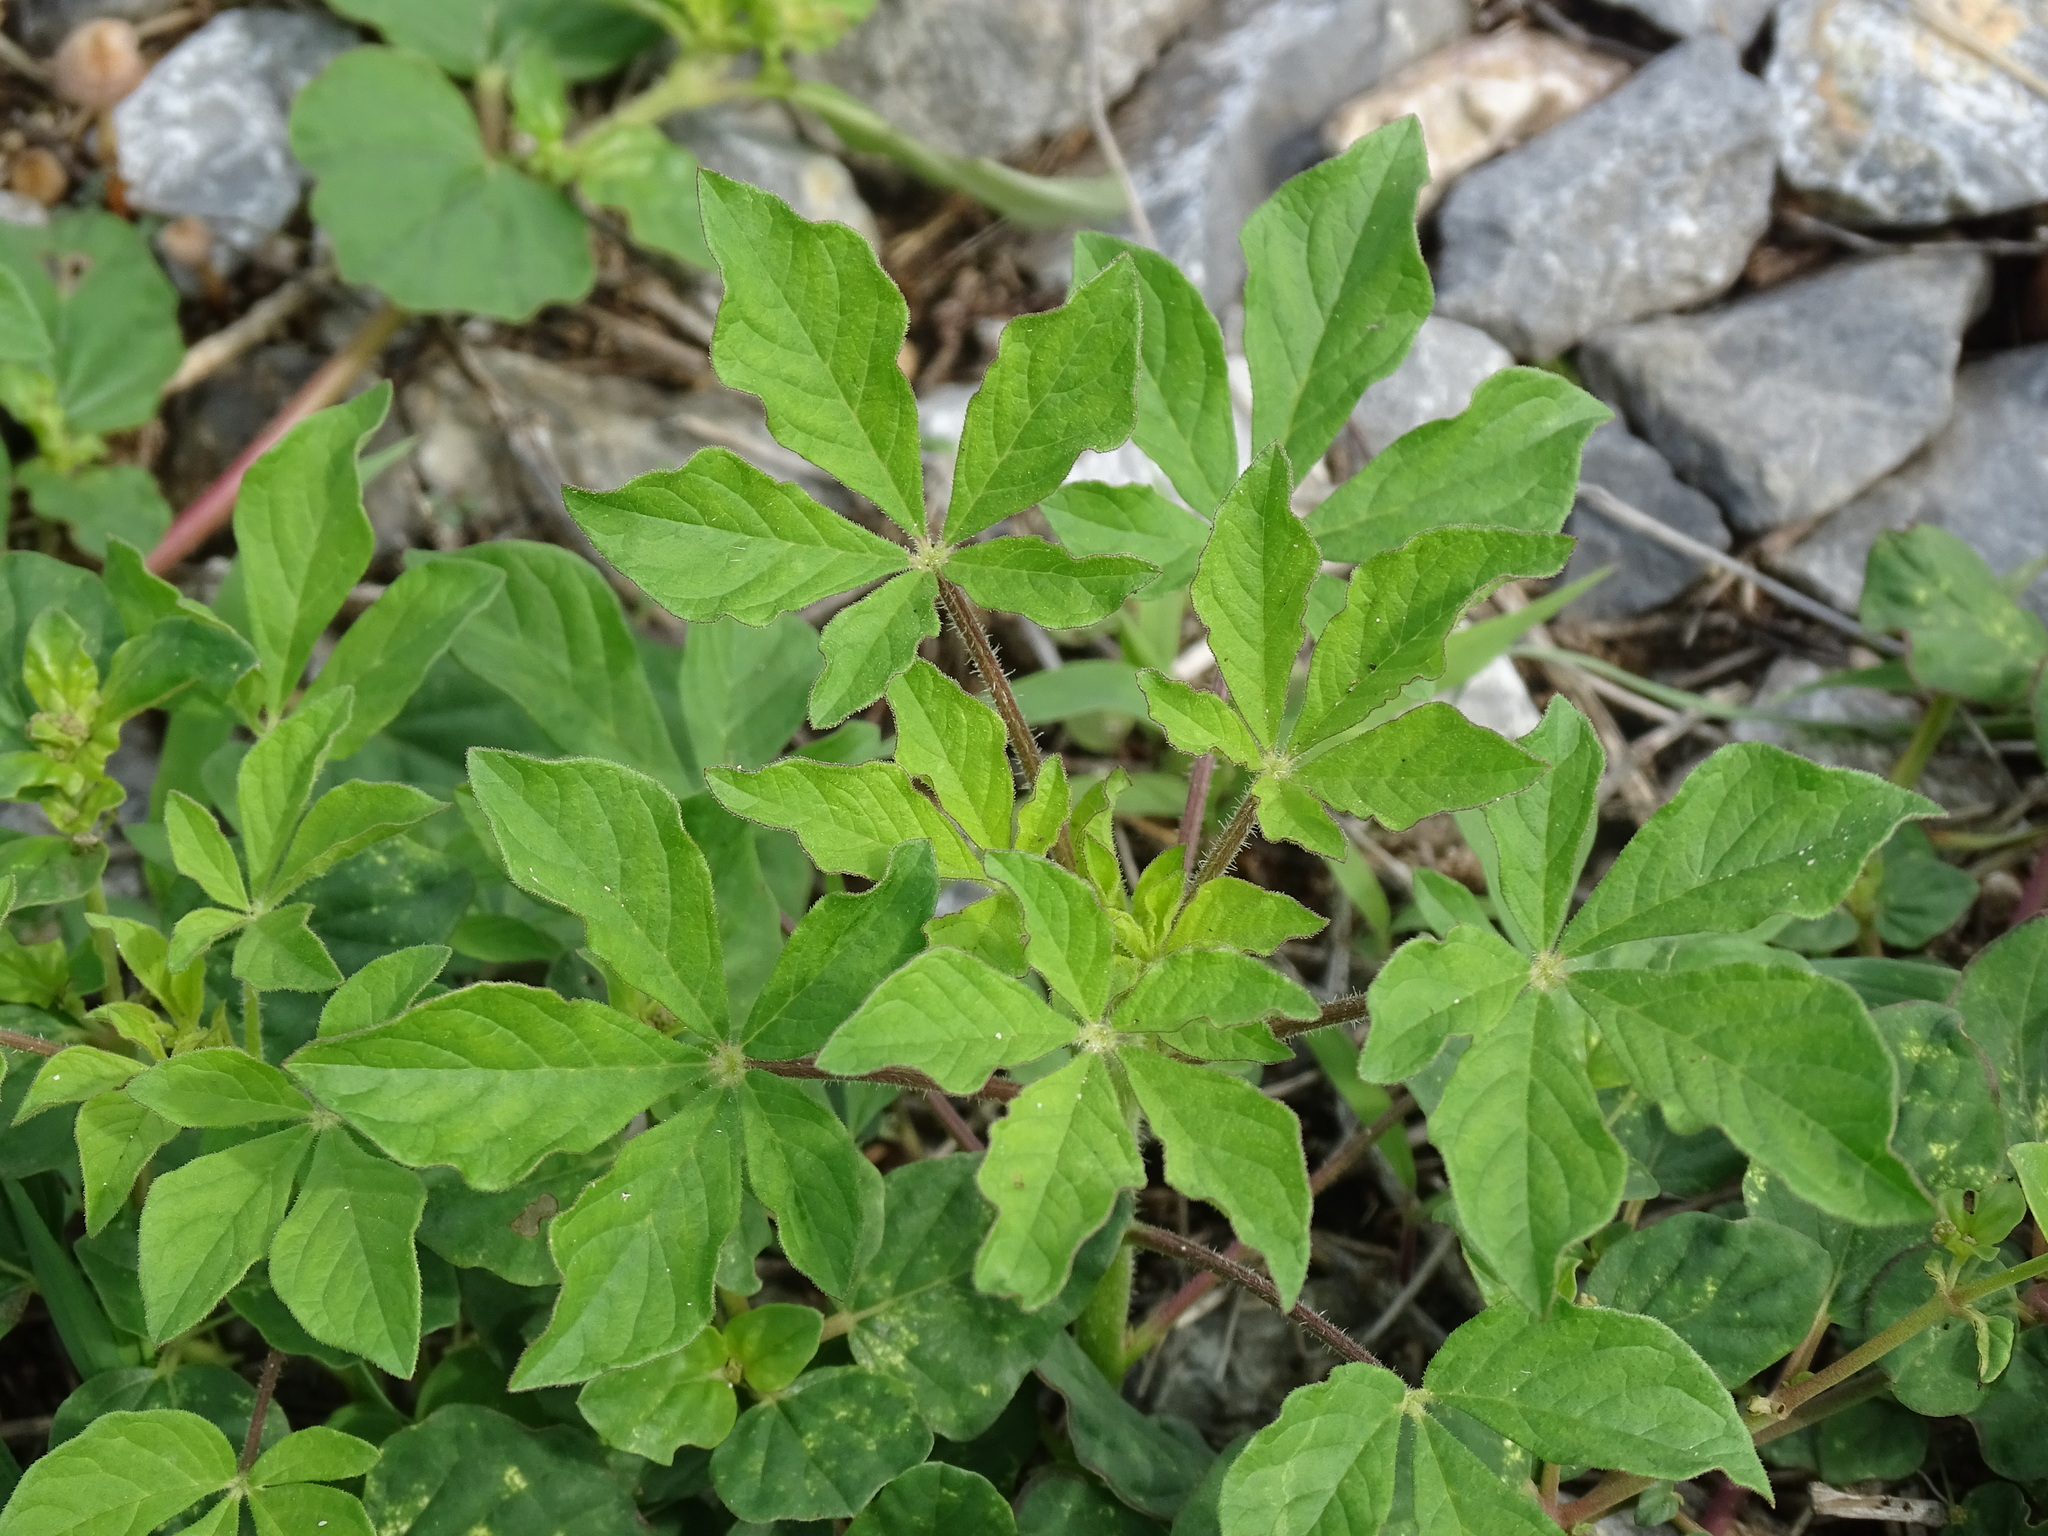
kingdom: Plantae
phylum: Tracheophyta
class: Magnoliopsida
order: Brassicales
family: Cleomaceae
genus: Arivela
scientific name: Arivela viscosa
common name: Asian spiderflower
